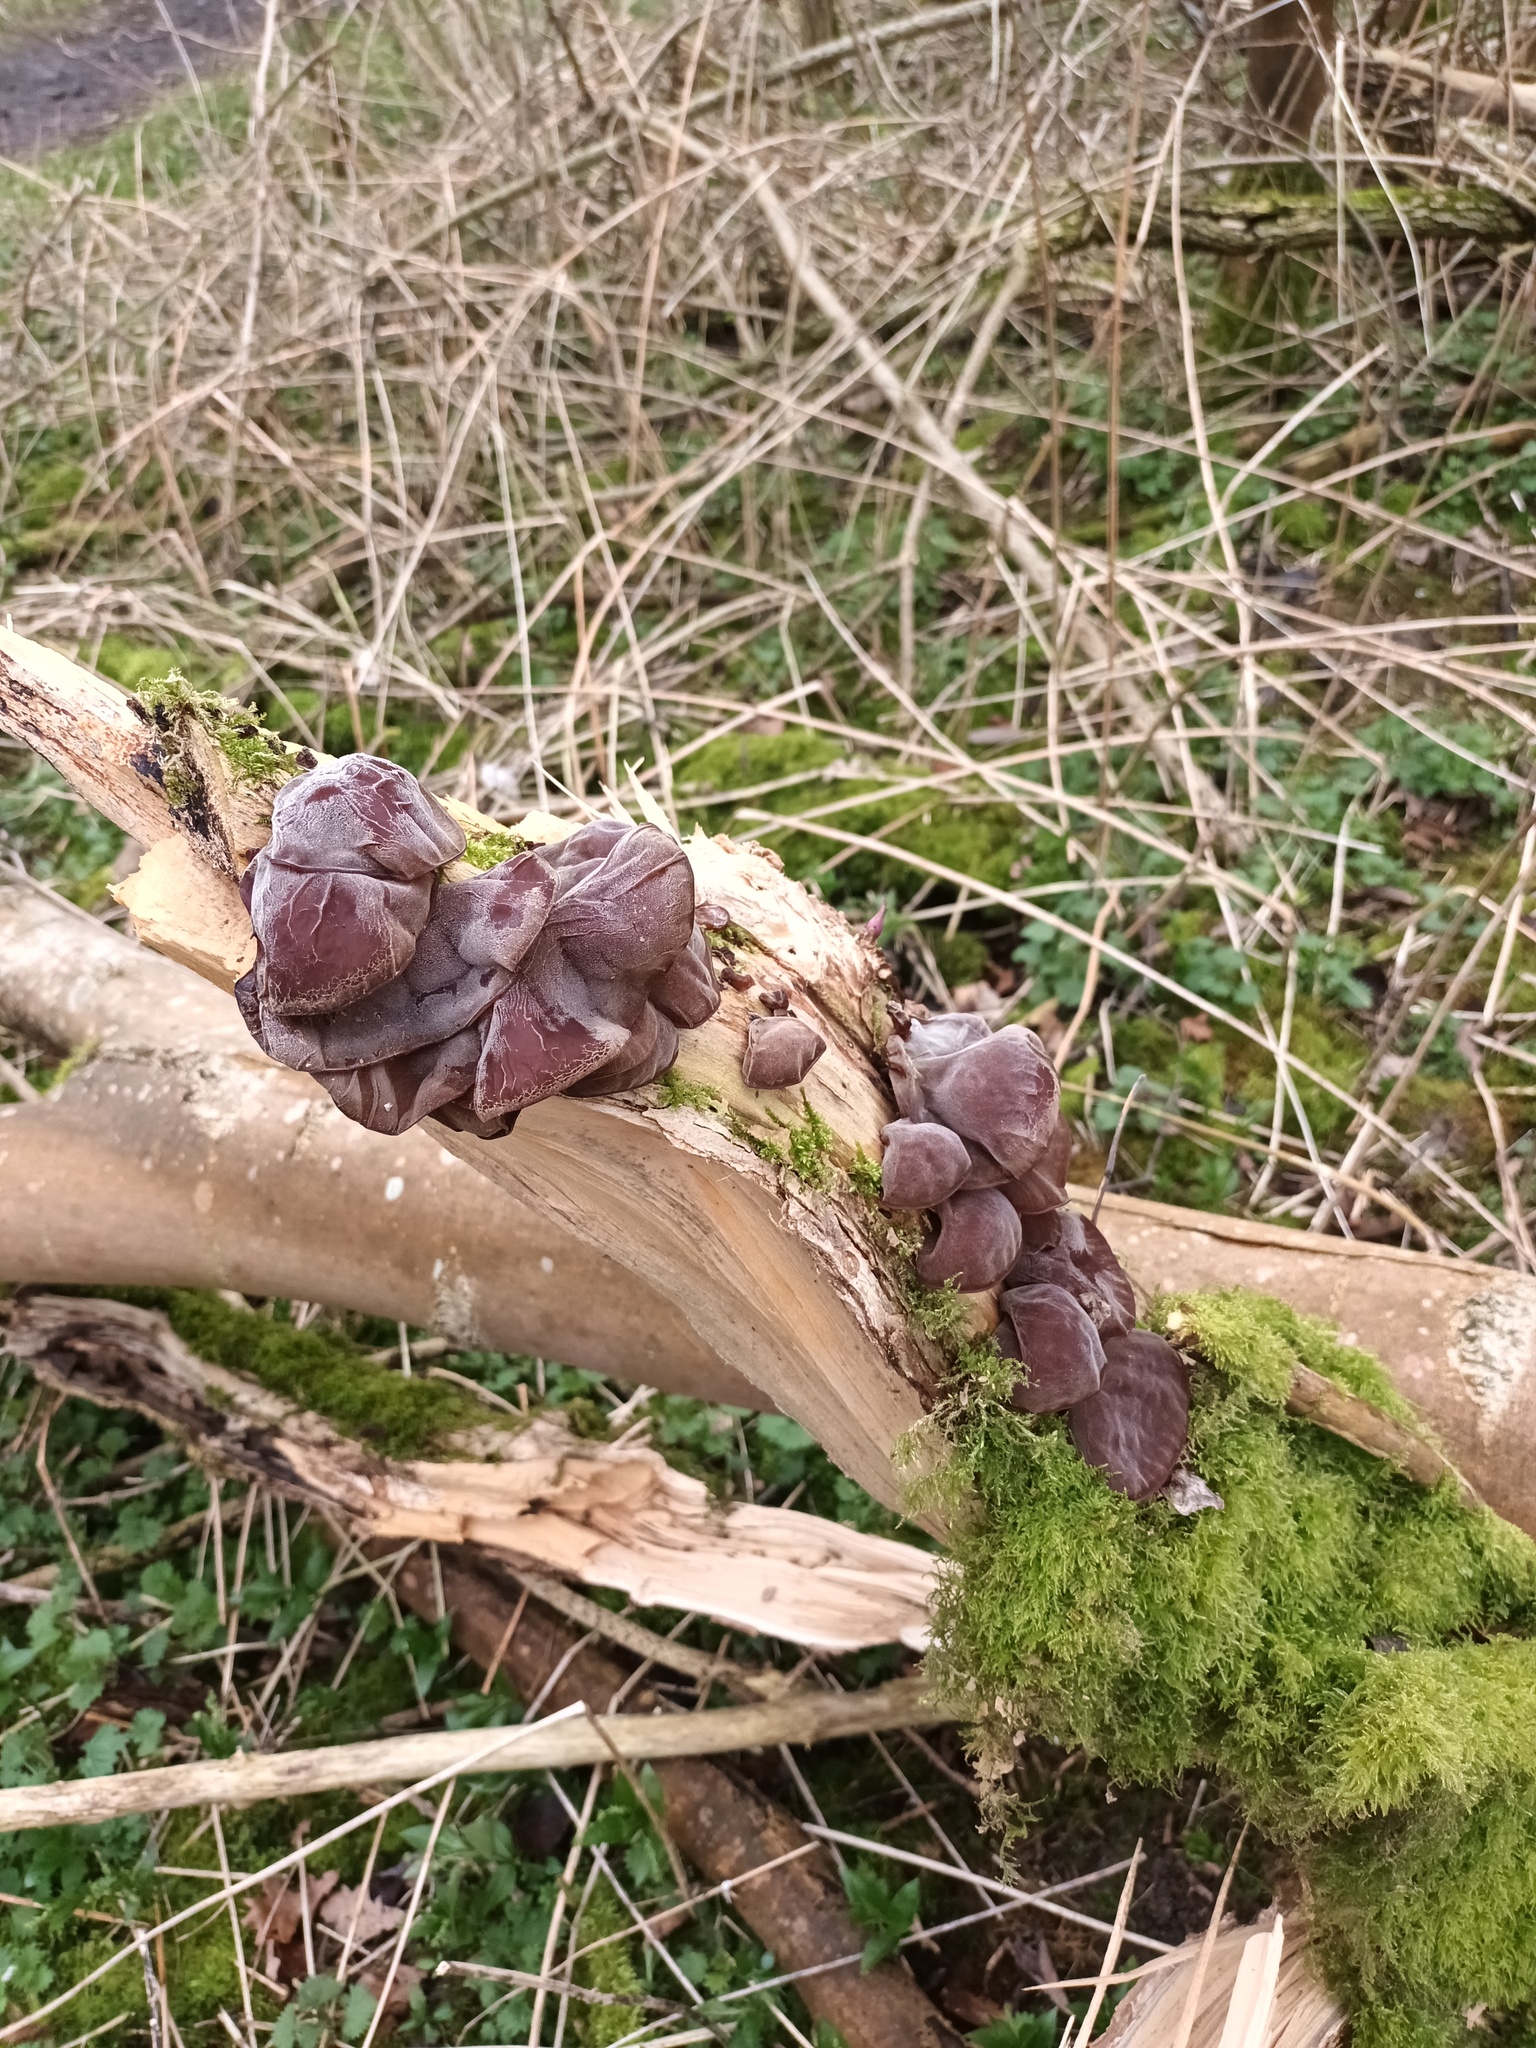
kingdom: Fungi
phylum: Basidiomycota
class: Agaricomycetes
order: Auriculariales
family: Auriculariaceae
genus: Auricularia
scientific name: Auricularia auricula-judae
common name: Jelly ear
